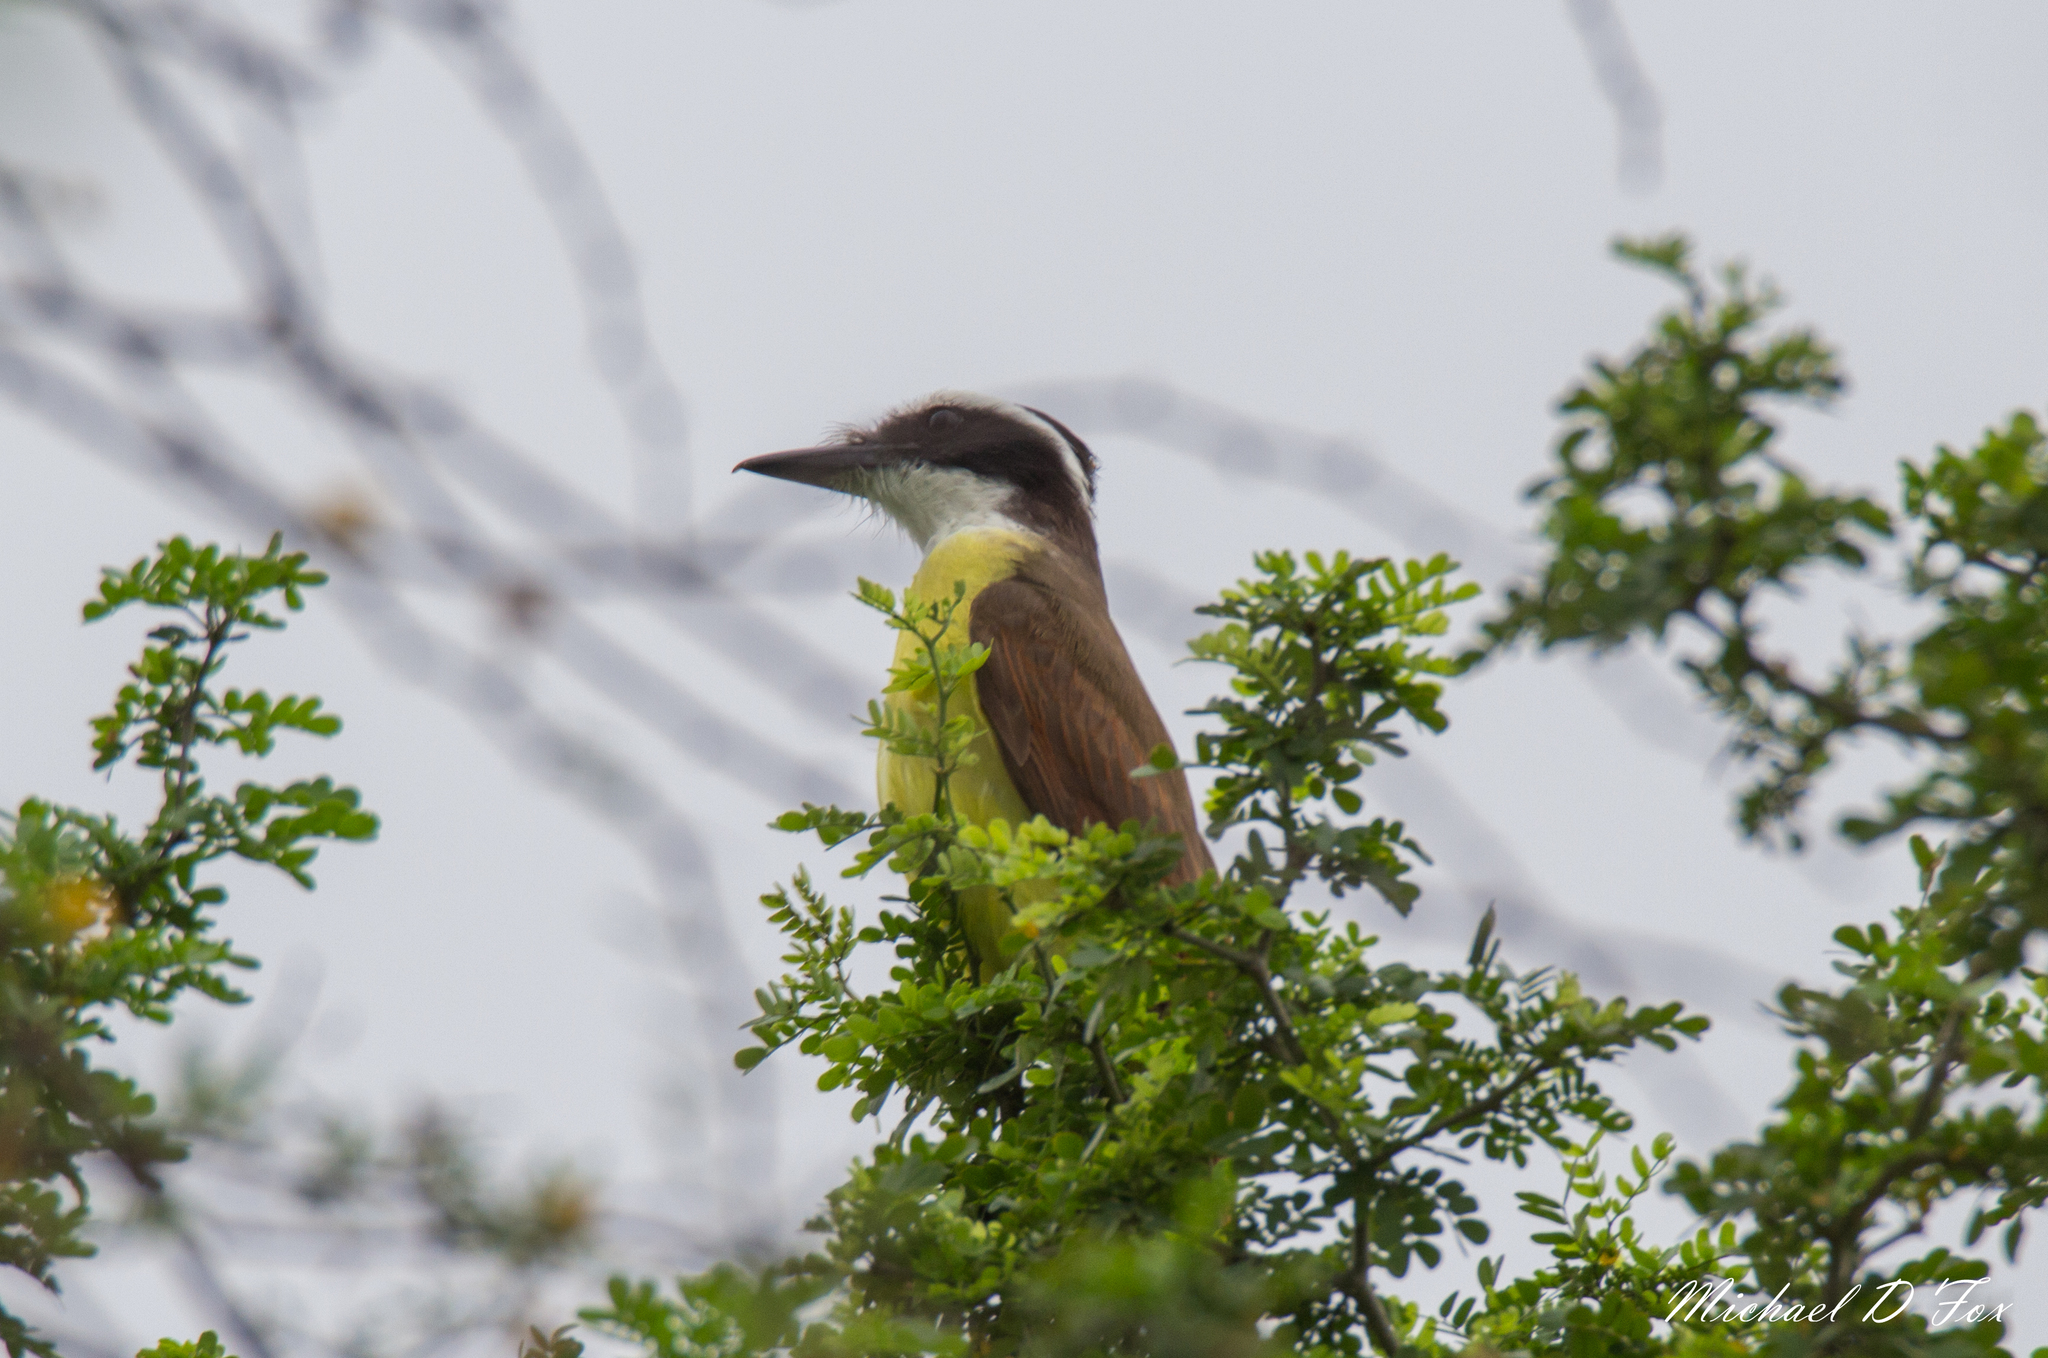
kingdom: Animalia
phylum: Chordata
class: Aves
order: Passeriformes
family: Tyrannidae
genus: Pitangus
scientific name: Pitangus sulphuratus
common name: Great kiskadee
